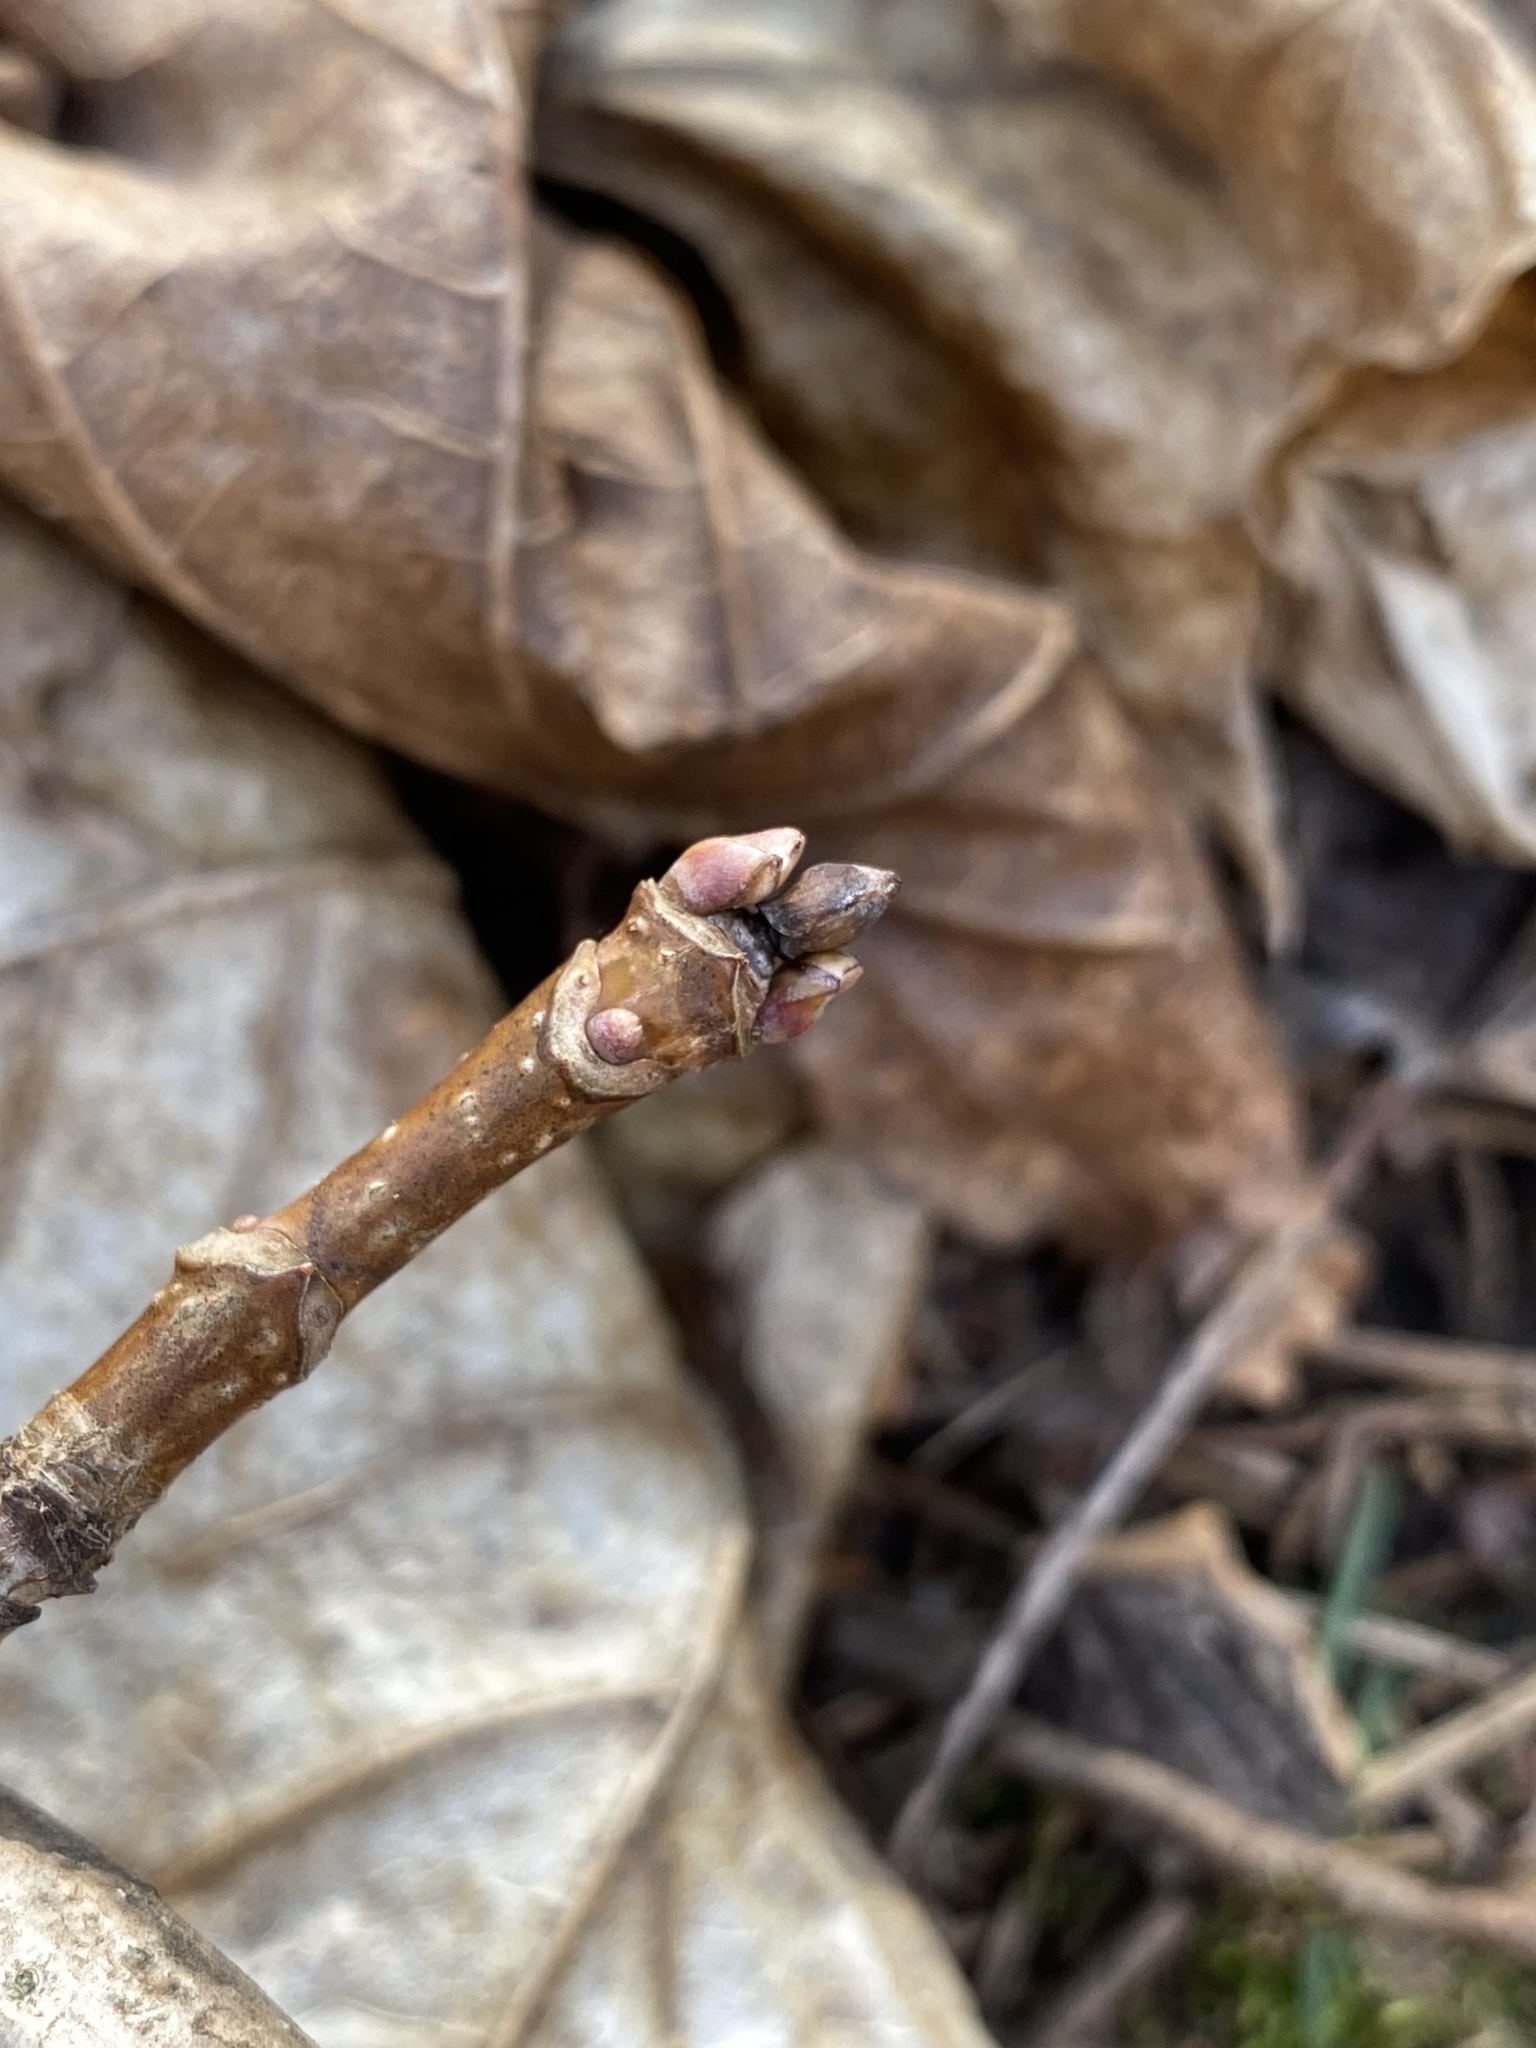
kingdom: Plantae
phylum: Tracheophyta
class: Magnoliopsida
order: Sapindales
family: Sapindaceae
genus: Acer
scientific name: Acer platanoides
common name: Norway maple
